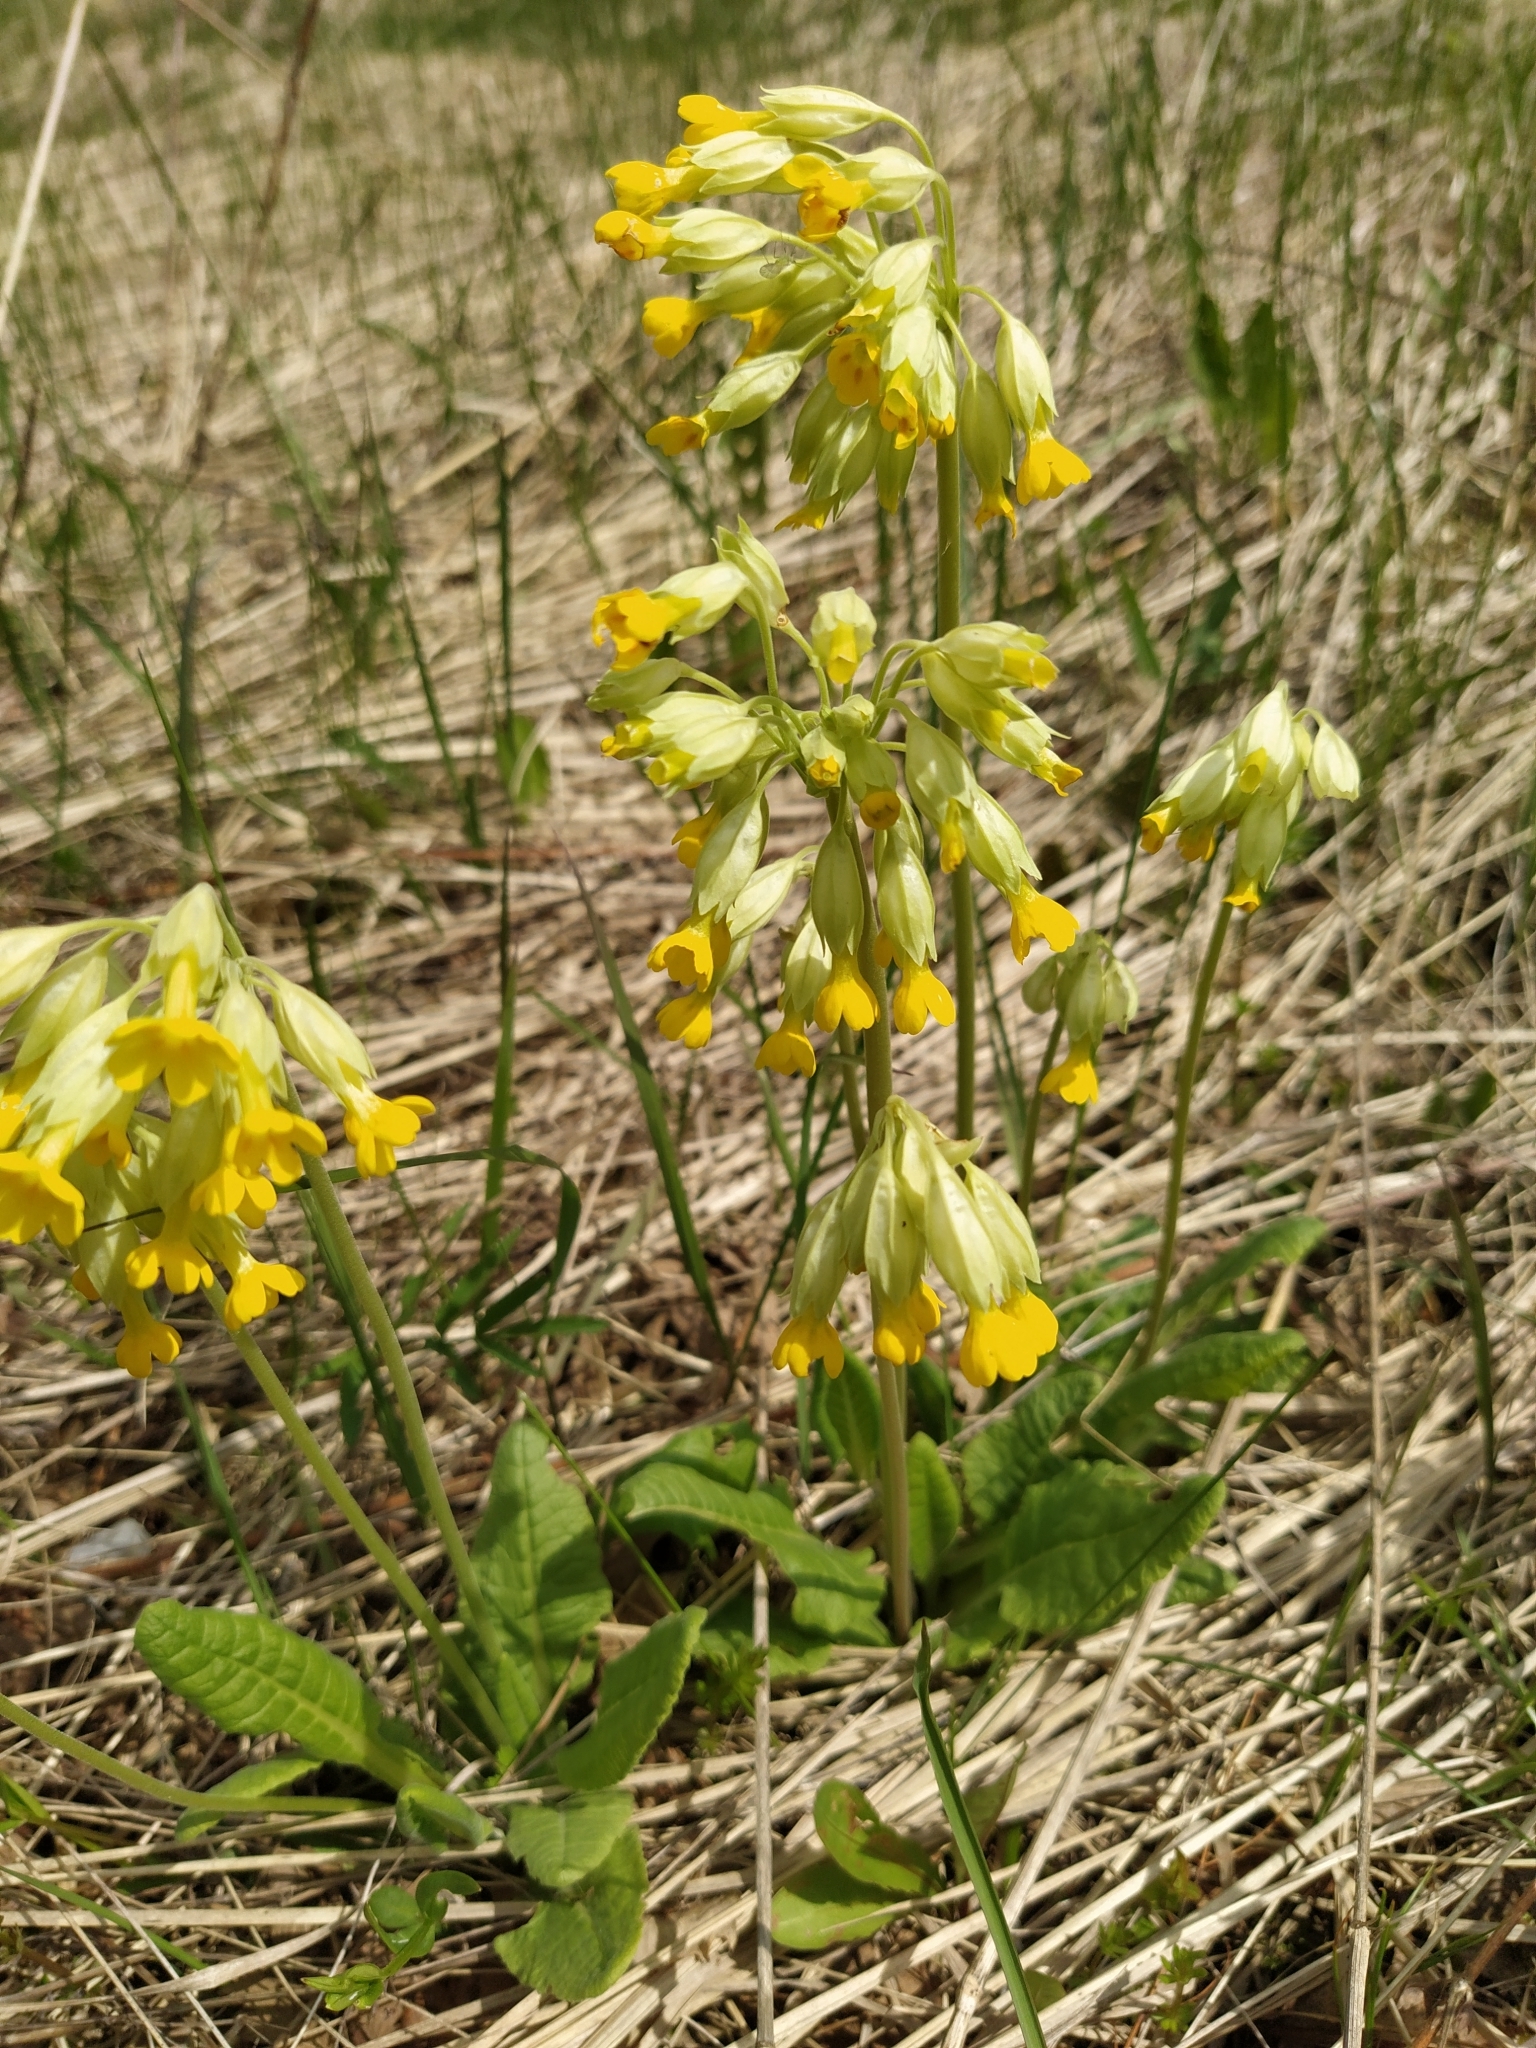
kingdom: Plantae
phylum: Tracheophyta
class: Magnoliopsida
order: Ericales
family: Primulaceae
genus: Primula
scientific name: Primula veris
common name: Cowslip
